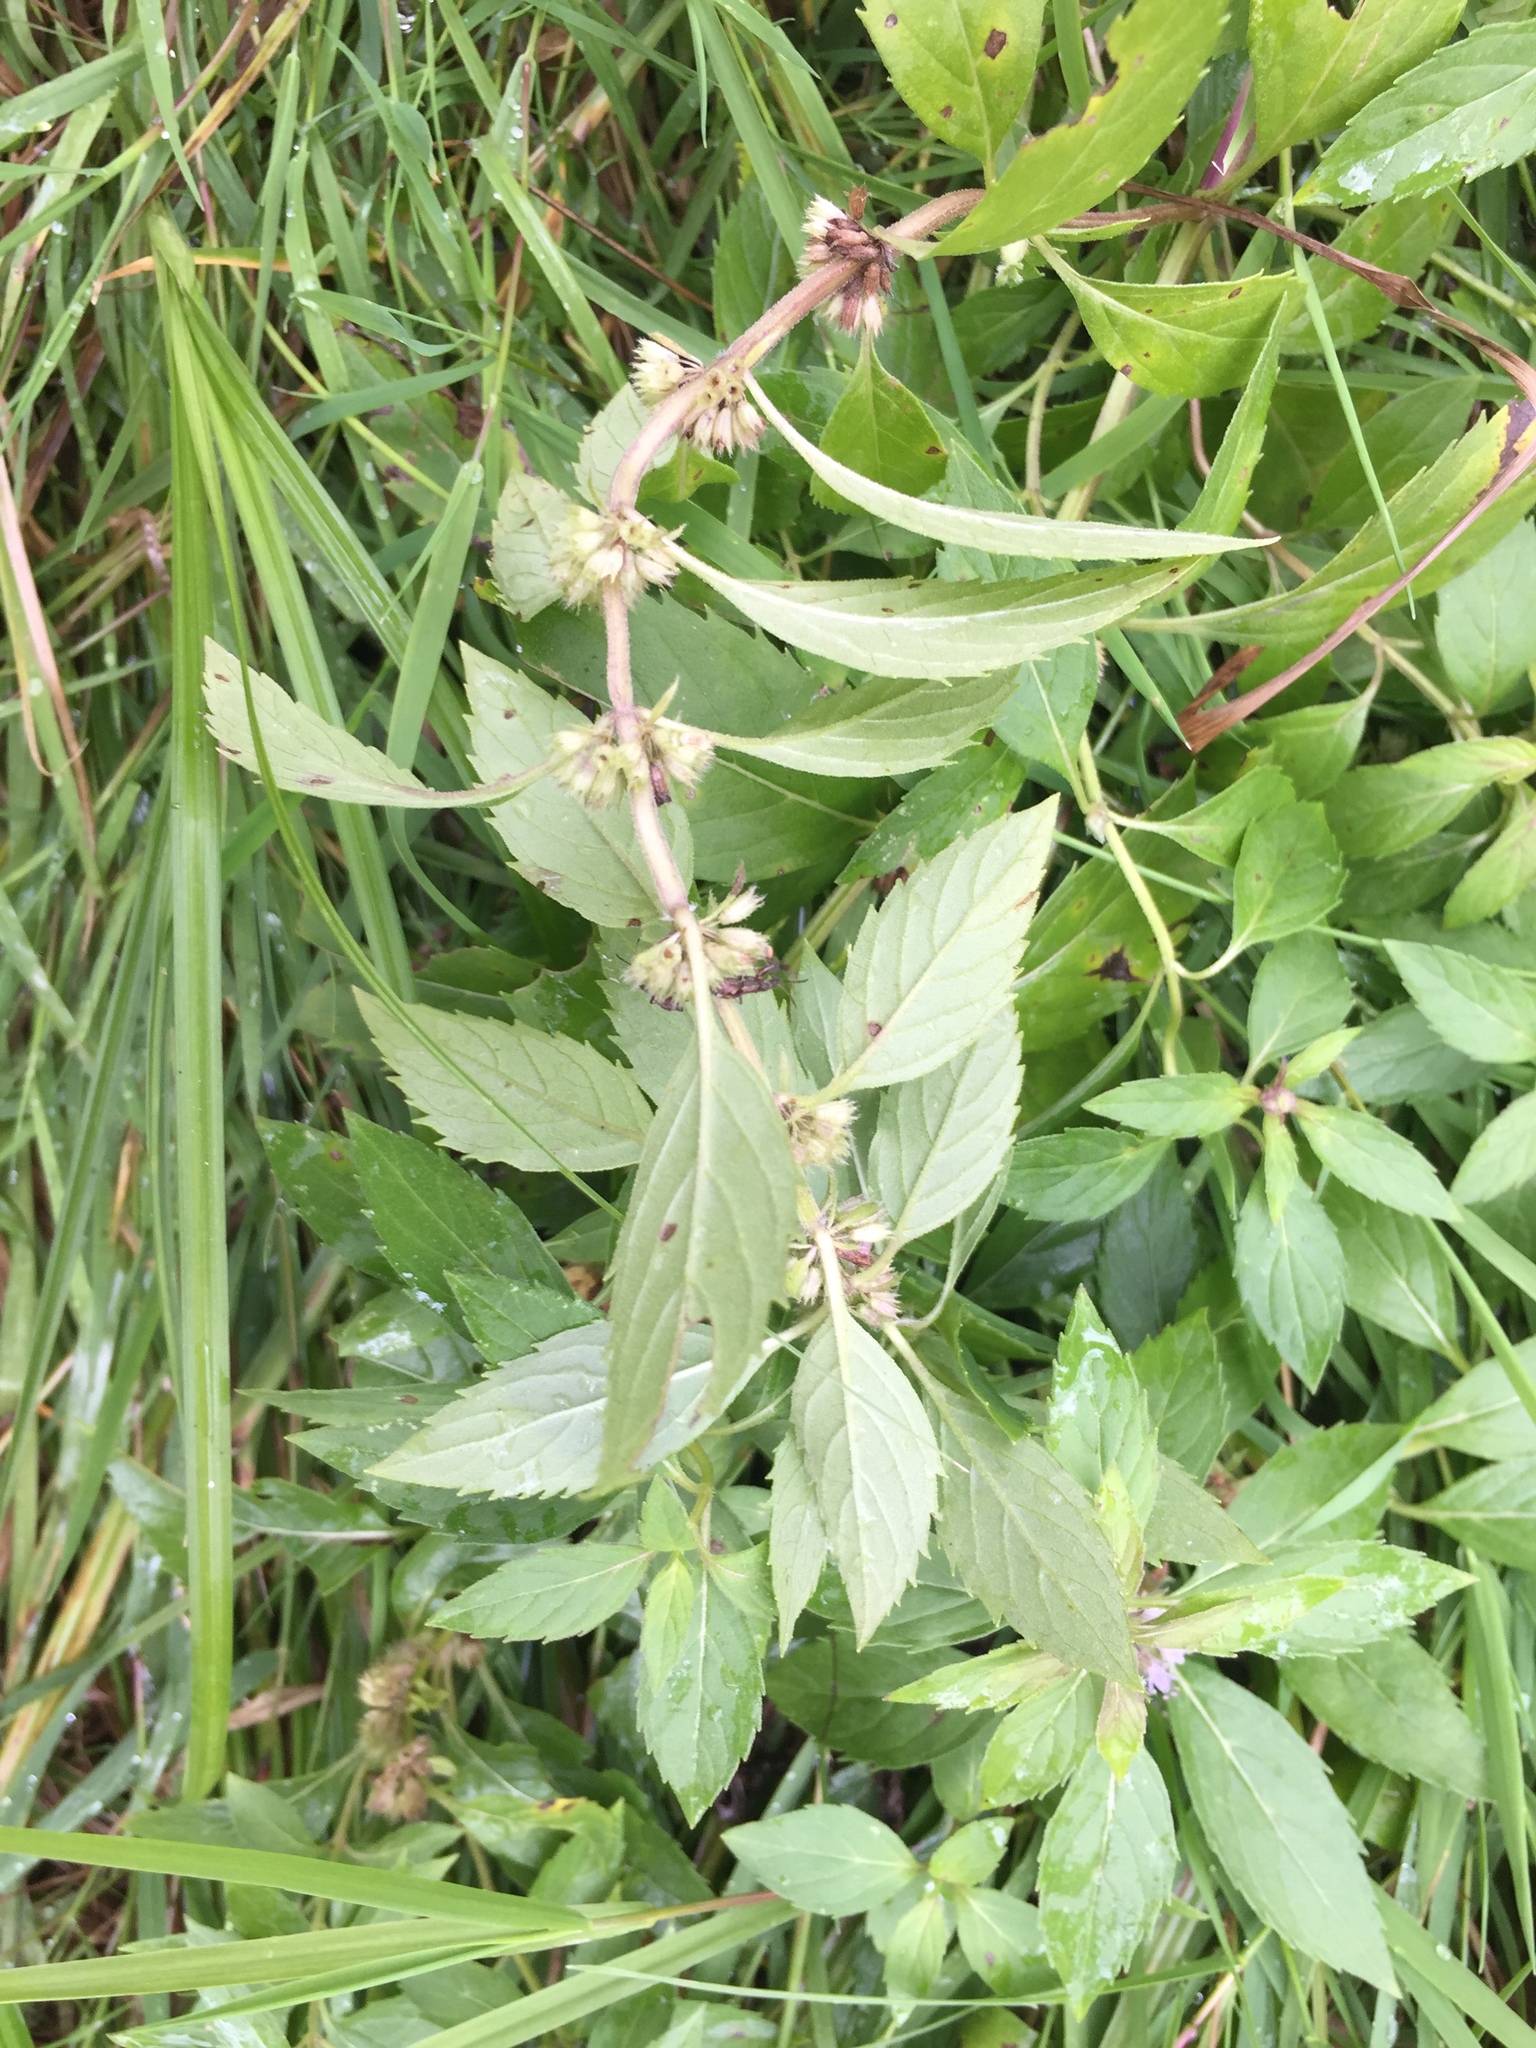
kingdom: Plantae
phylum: Tracheophyta
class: Magnoliopsida
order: Lamiales
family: Lamiaceae
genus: Mentha
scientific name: Mentha canadensis
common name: American corn mint
